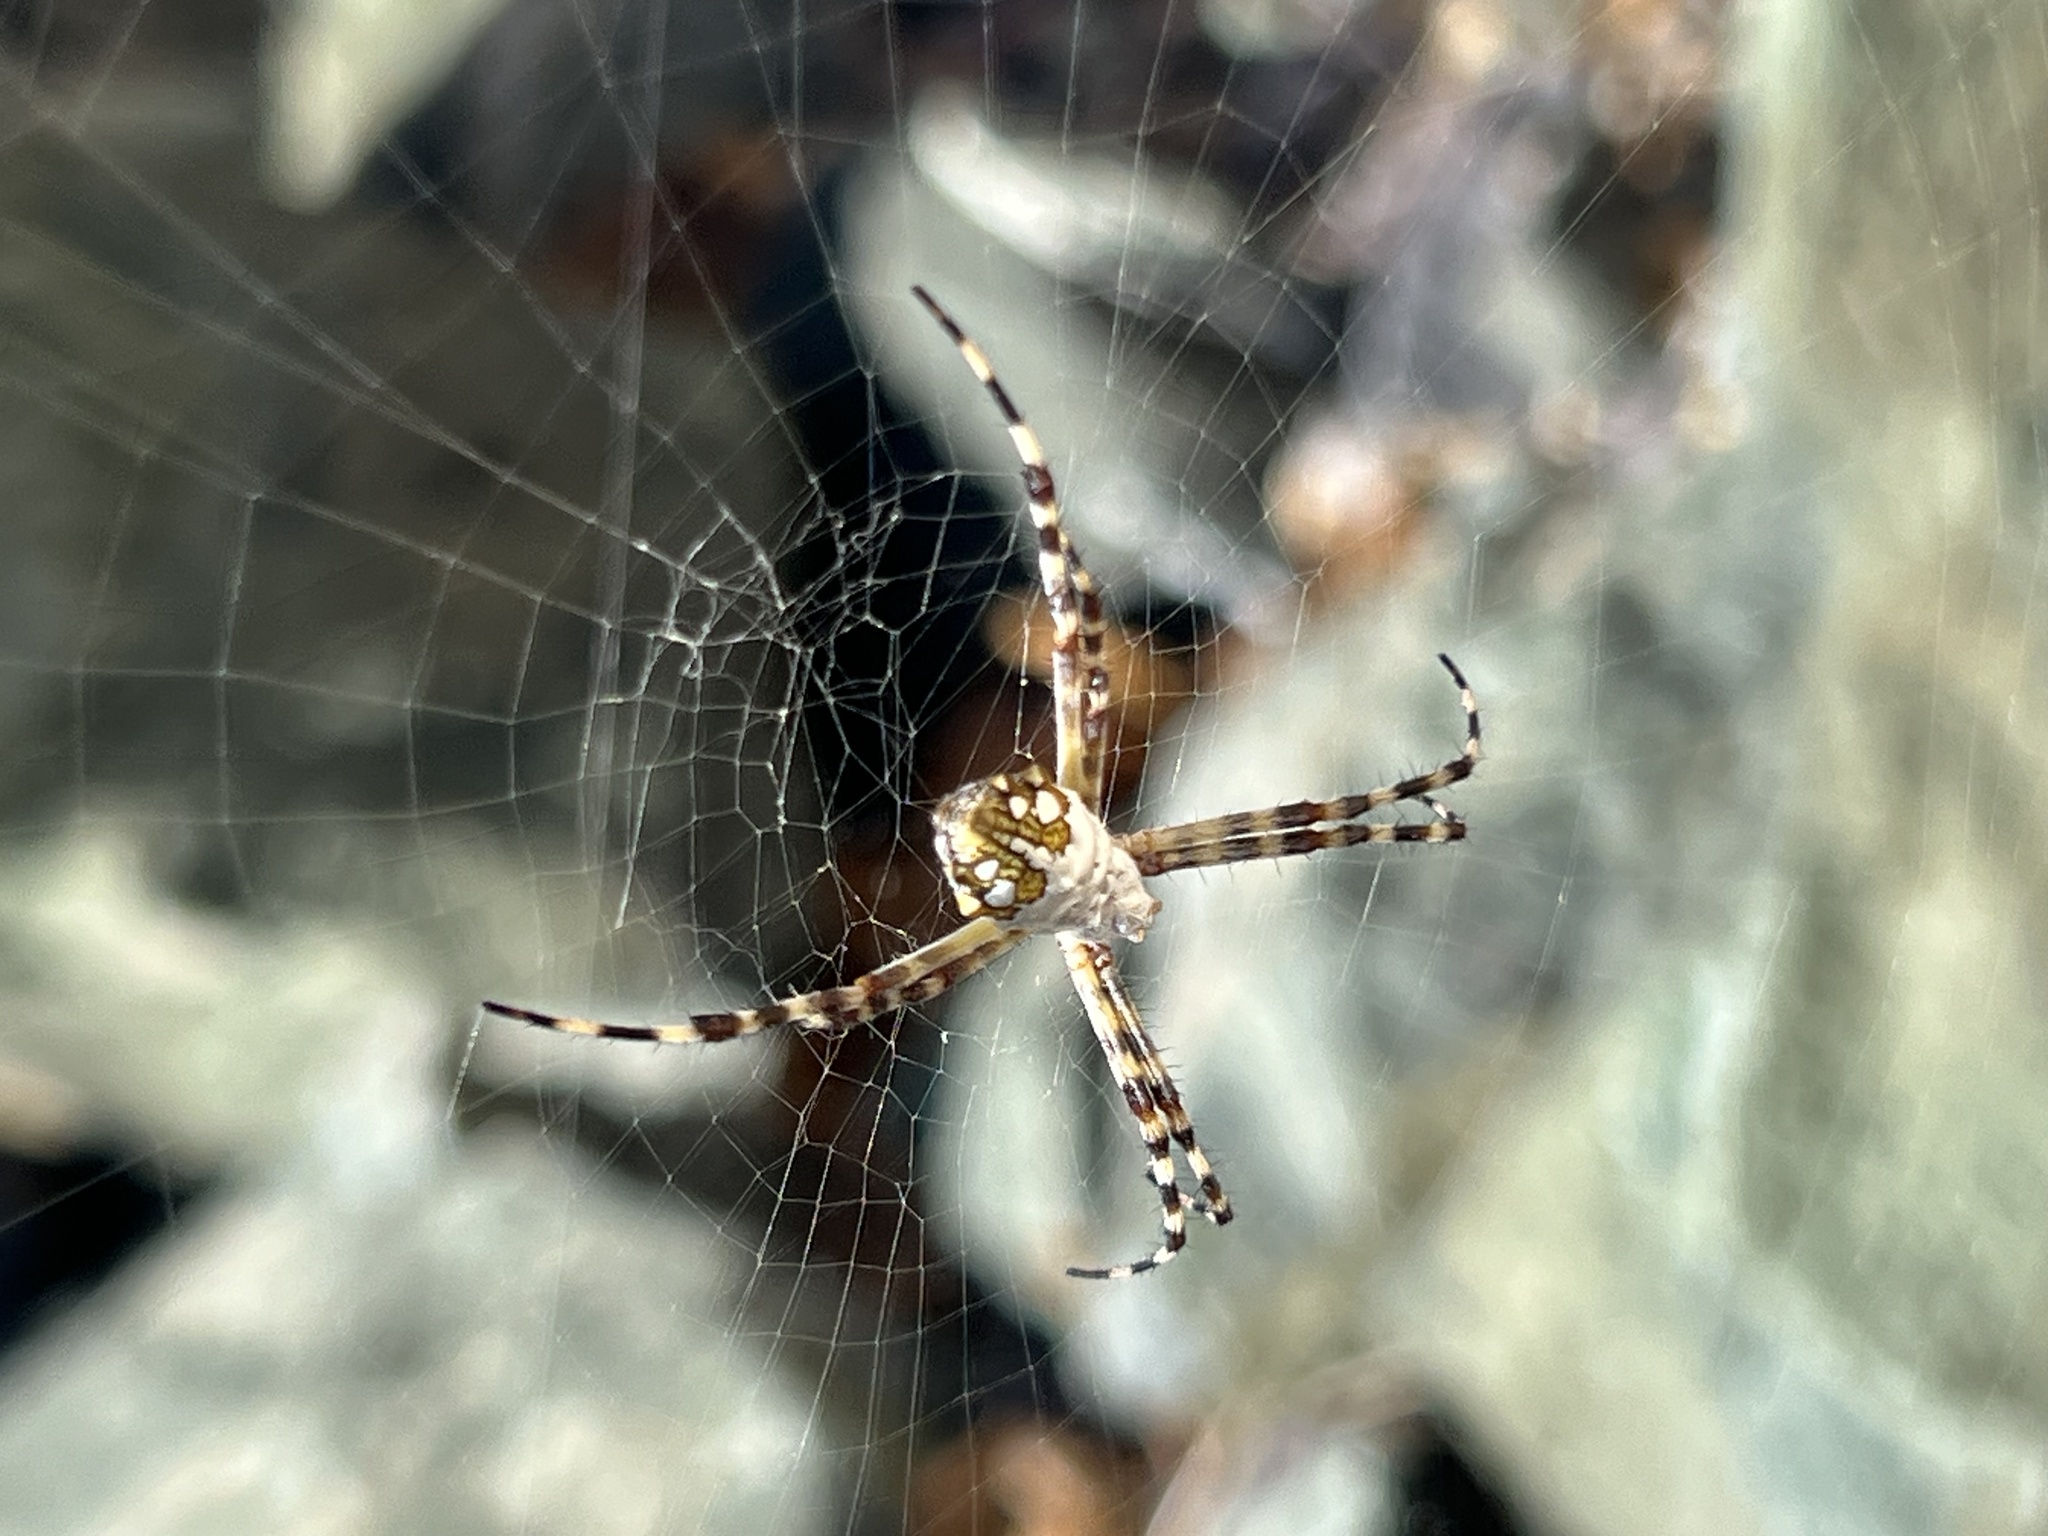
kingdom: Animalia
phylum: Arthropoda
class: Arachnida
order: Araneae
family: Araneidae
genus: Argiope
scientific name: Argiope argentata
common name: Orb weavers
